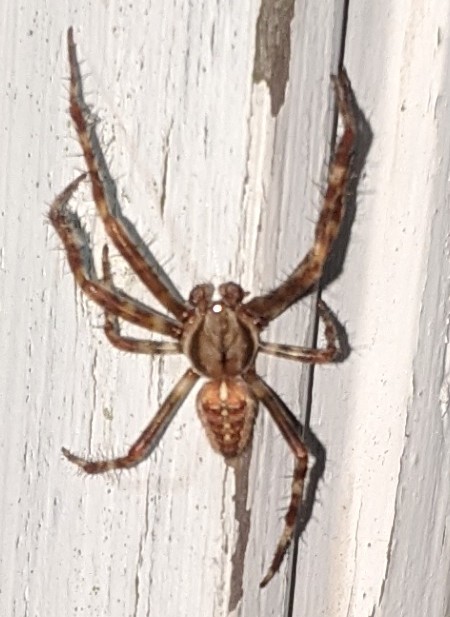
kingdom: Animalia
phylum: Arthropoda
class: Arachnida
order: Araneae
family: Araneidae
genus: Araneus
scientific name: Araneus diadematus
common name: Cross orbweaver
